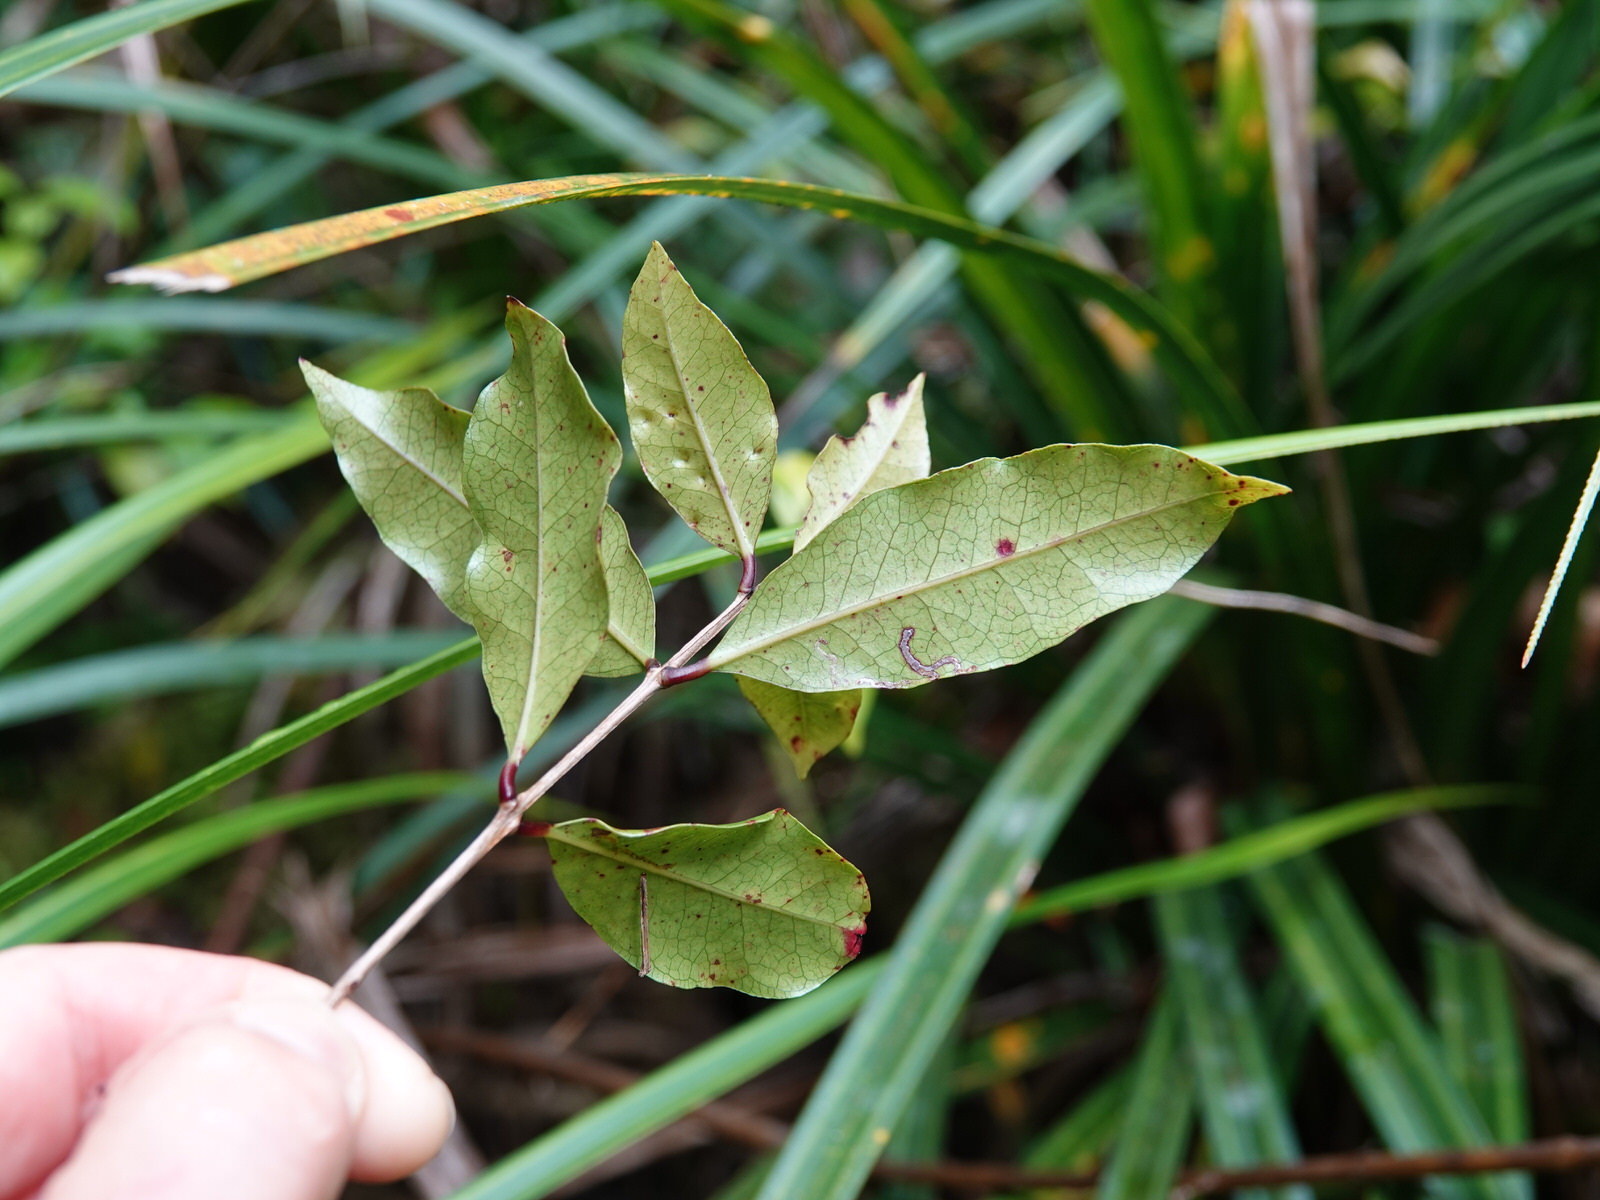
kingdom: Plantae
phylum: Tracheophyta
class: Magnoliopsida
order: Myrtales
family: Myrtaceae
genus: Syzygium
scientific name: Syzygium maire
